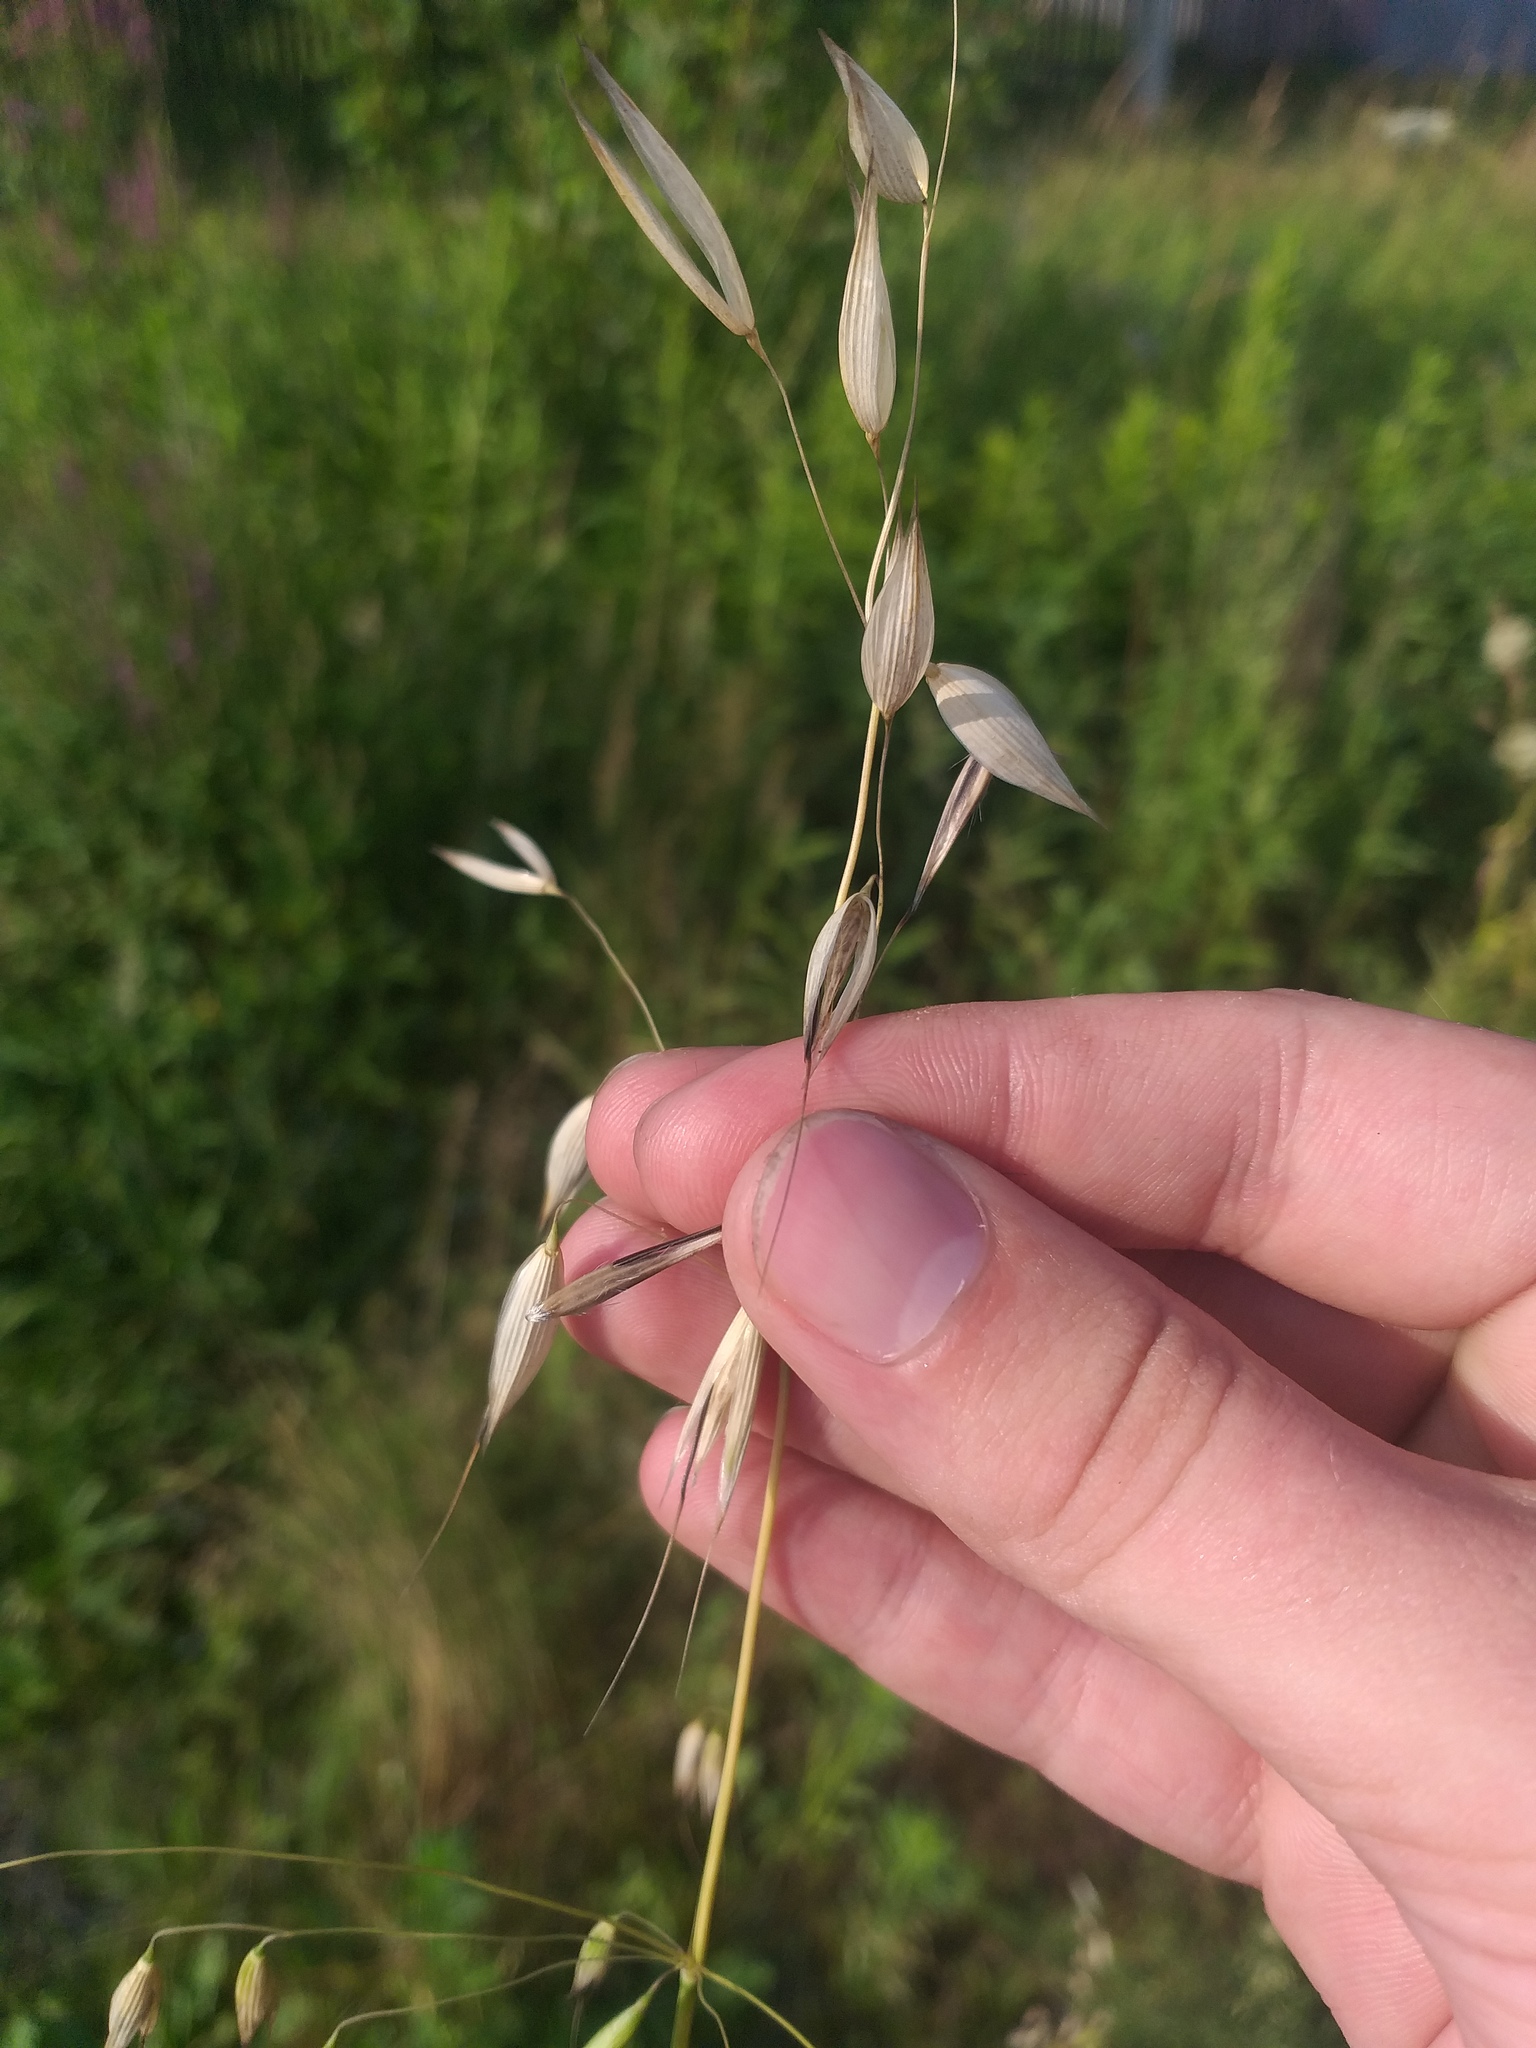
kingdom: Plantae
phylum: Tracheophyta
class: Liliopsida
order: Poales
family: Poaceae
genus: Avena
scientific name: Avena fatua
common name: Wild oat
